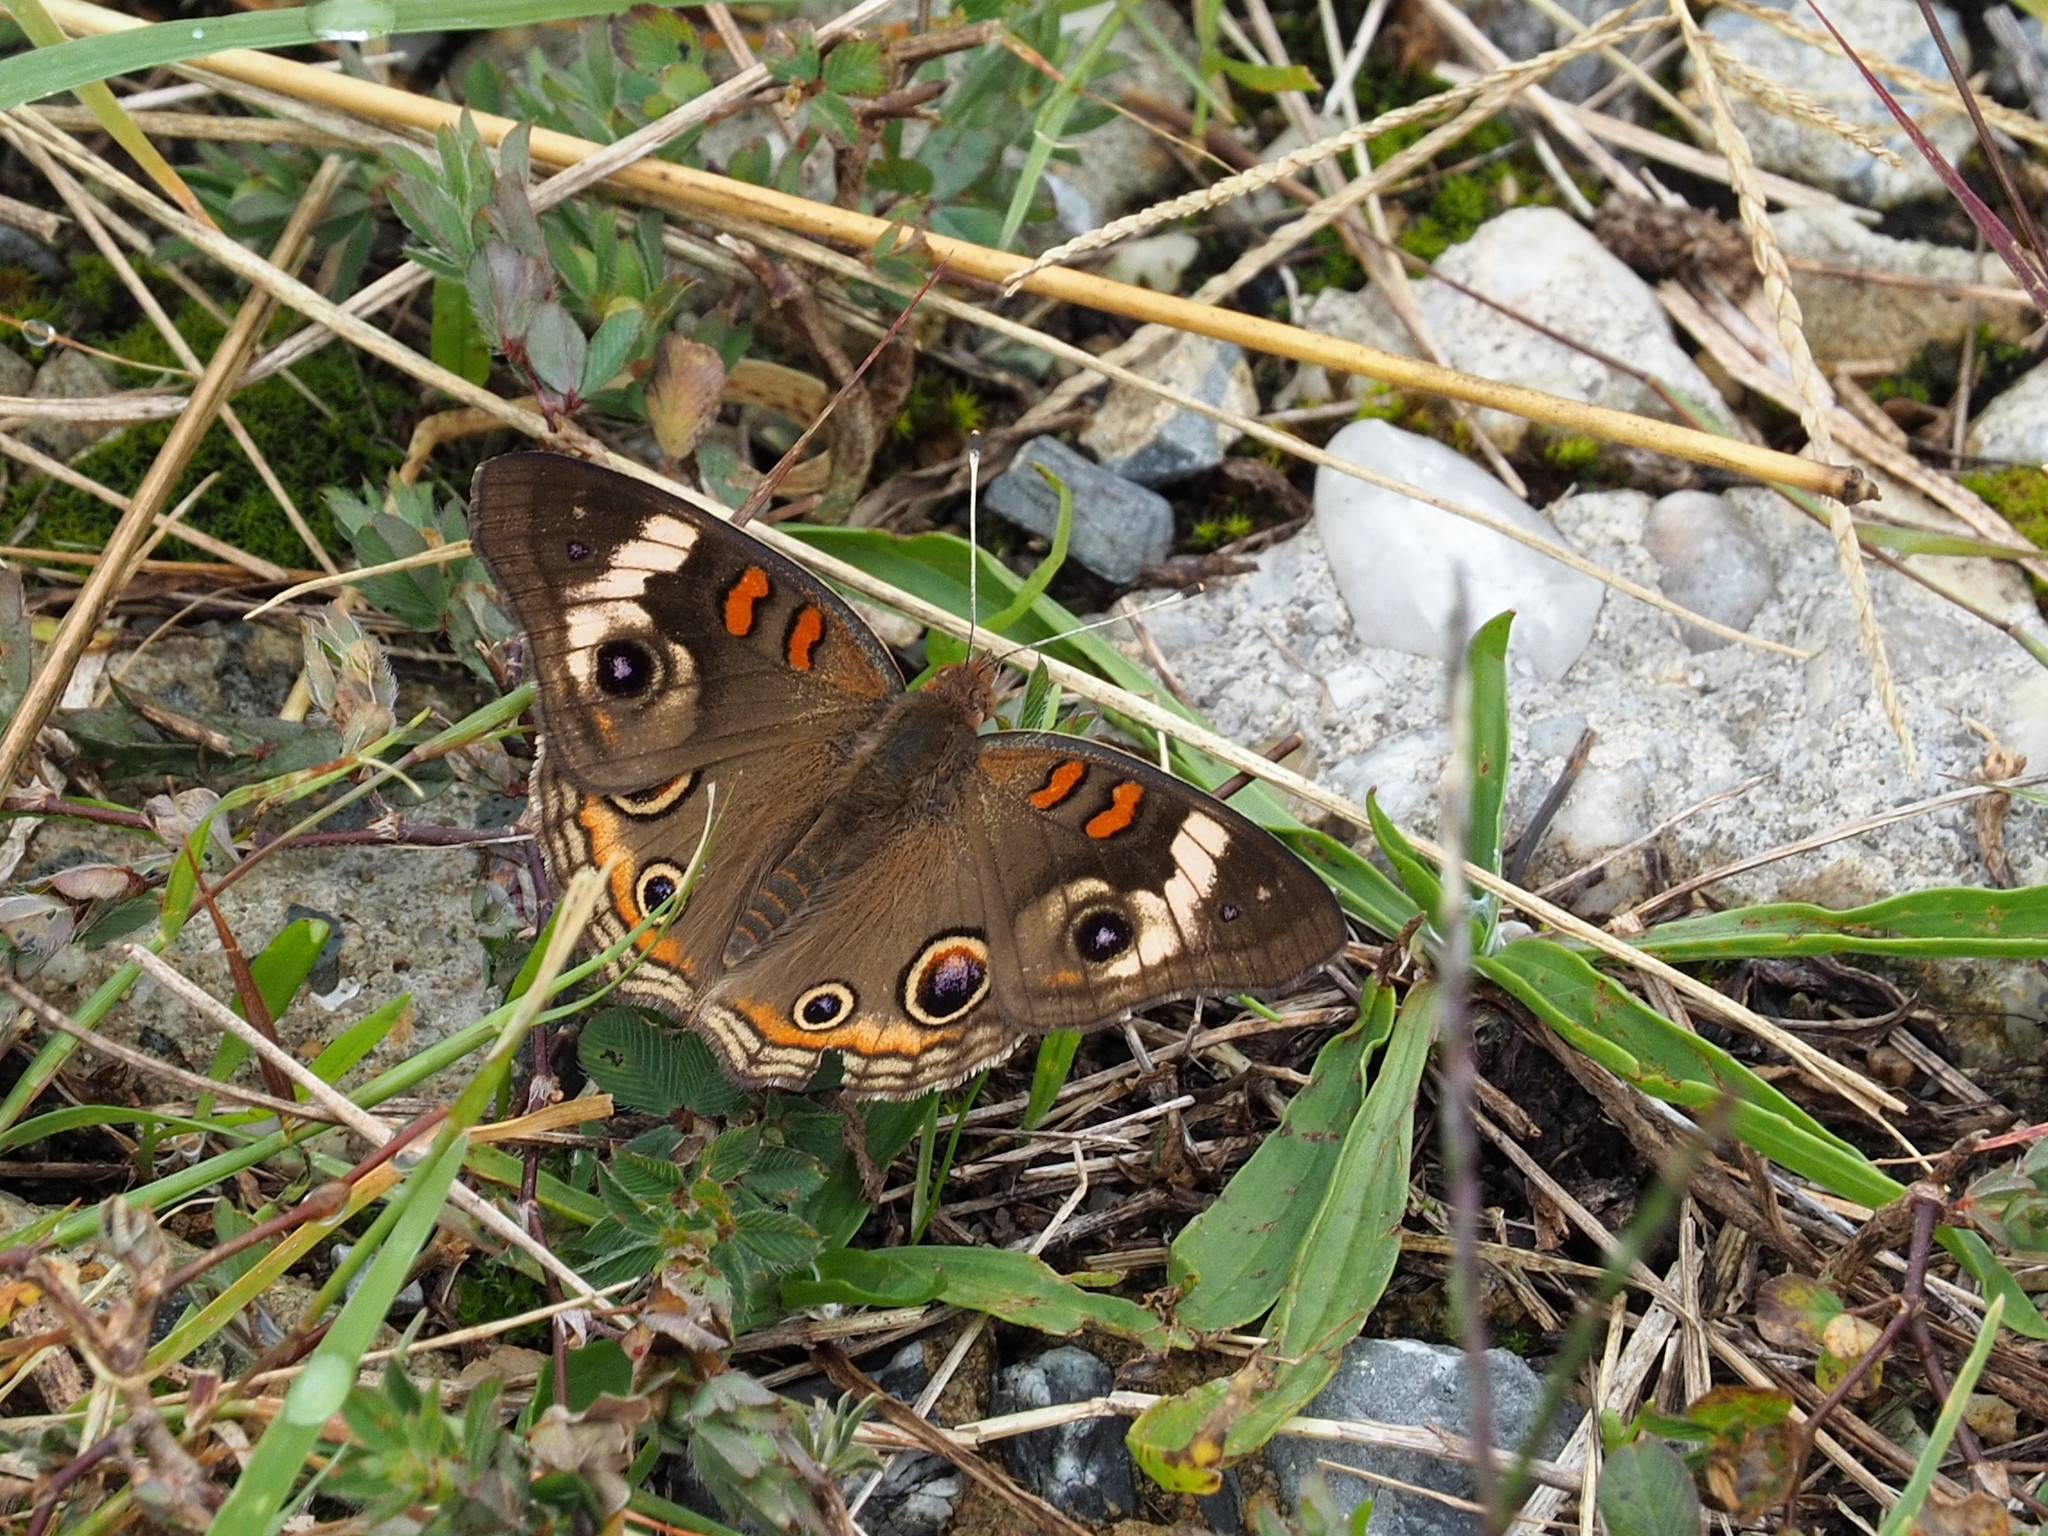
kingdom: Animalia
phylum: Arthropoda
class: Insecta
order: Lepidoptera
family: Nymphalidae
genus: Junonia
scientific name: Junonia coenia
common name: Common buckeye
